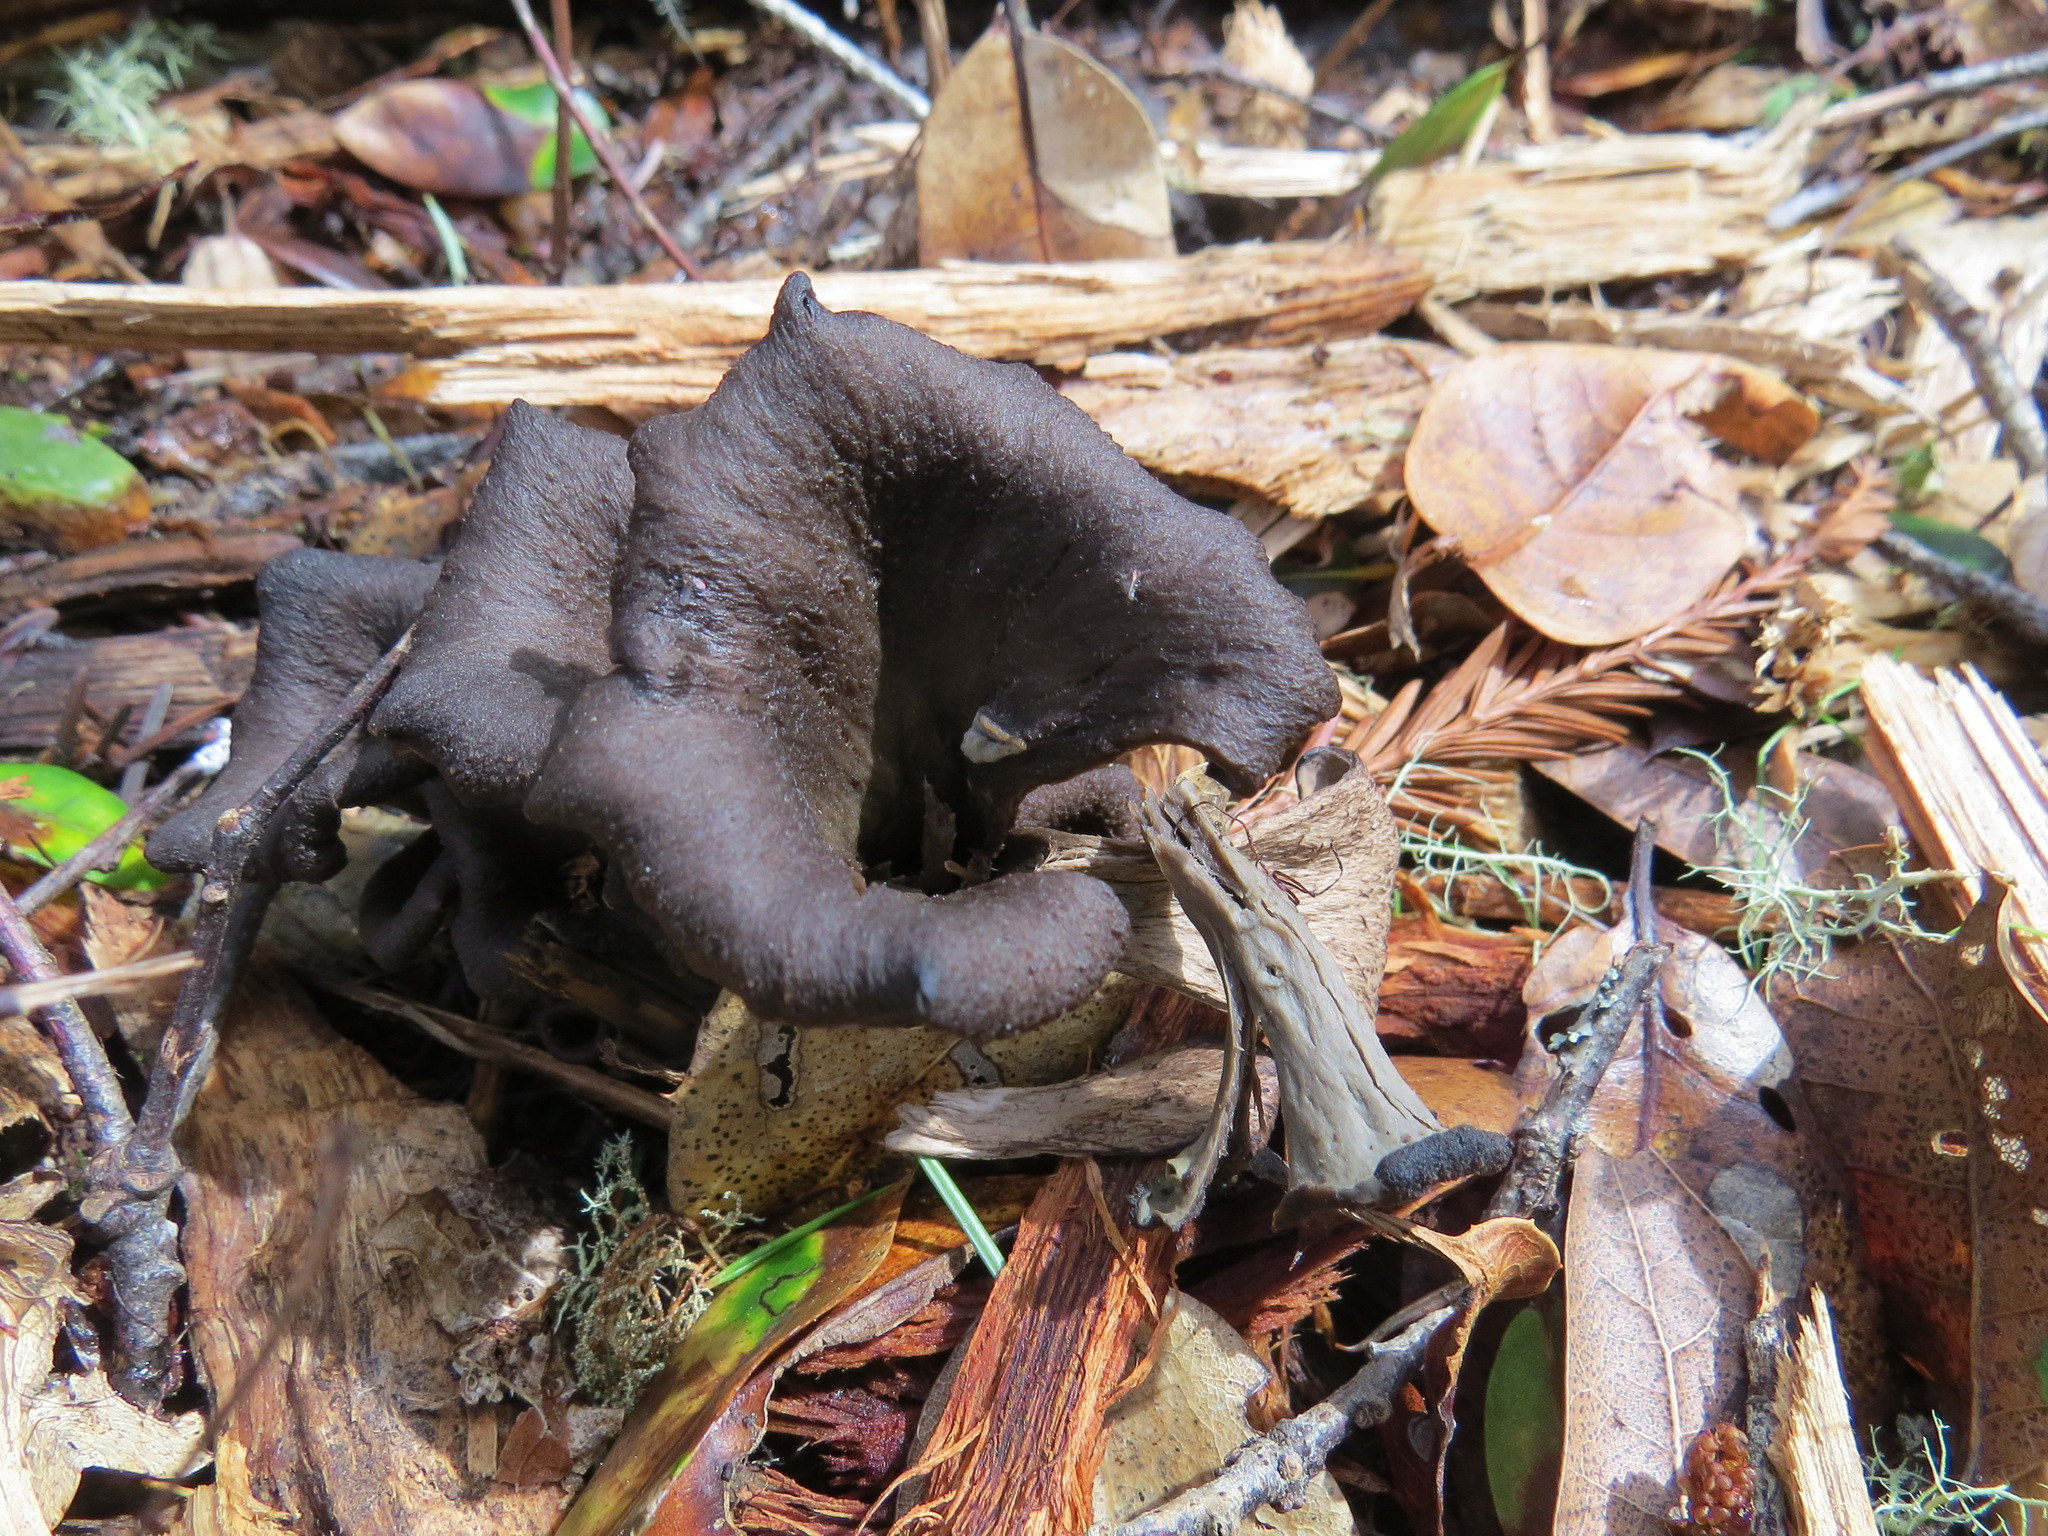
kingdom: Fungi
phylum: Basidiomycota
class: Agaricomycetes
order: Cantharellales
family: Hydnaceae
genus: Craterellus
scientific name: Craterellus calicornucopioides
